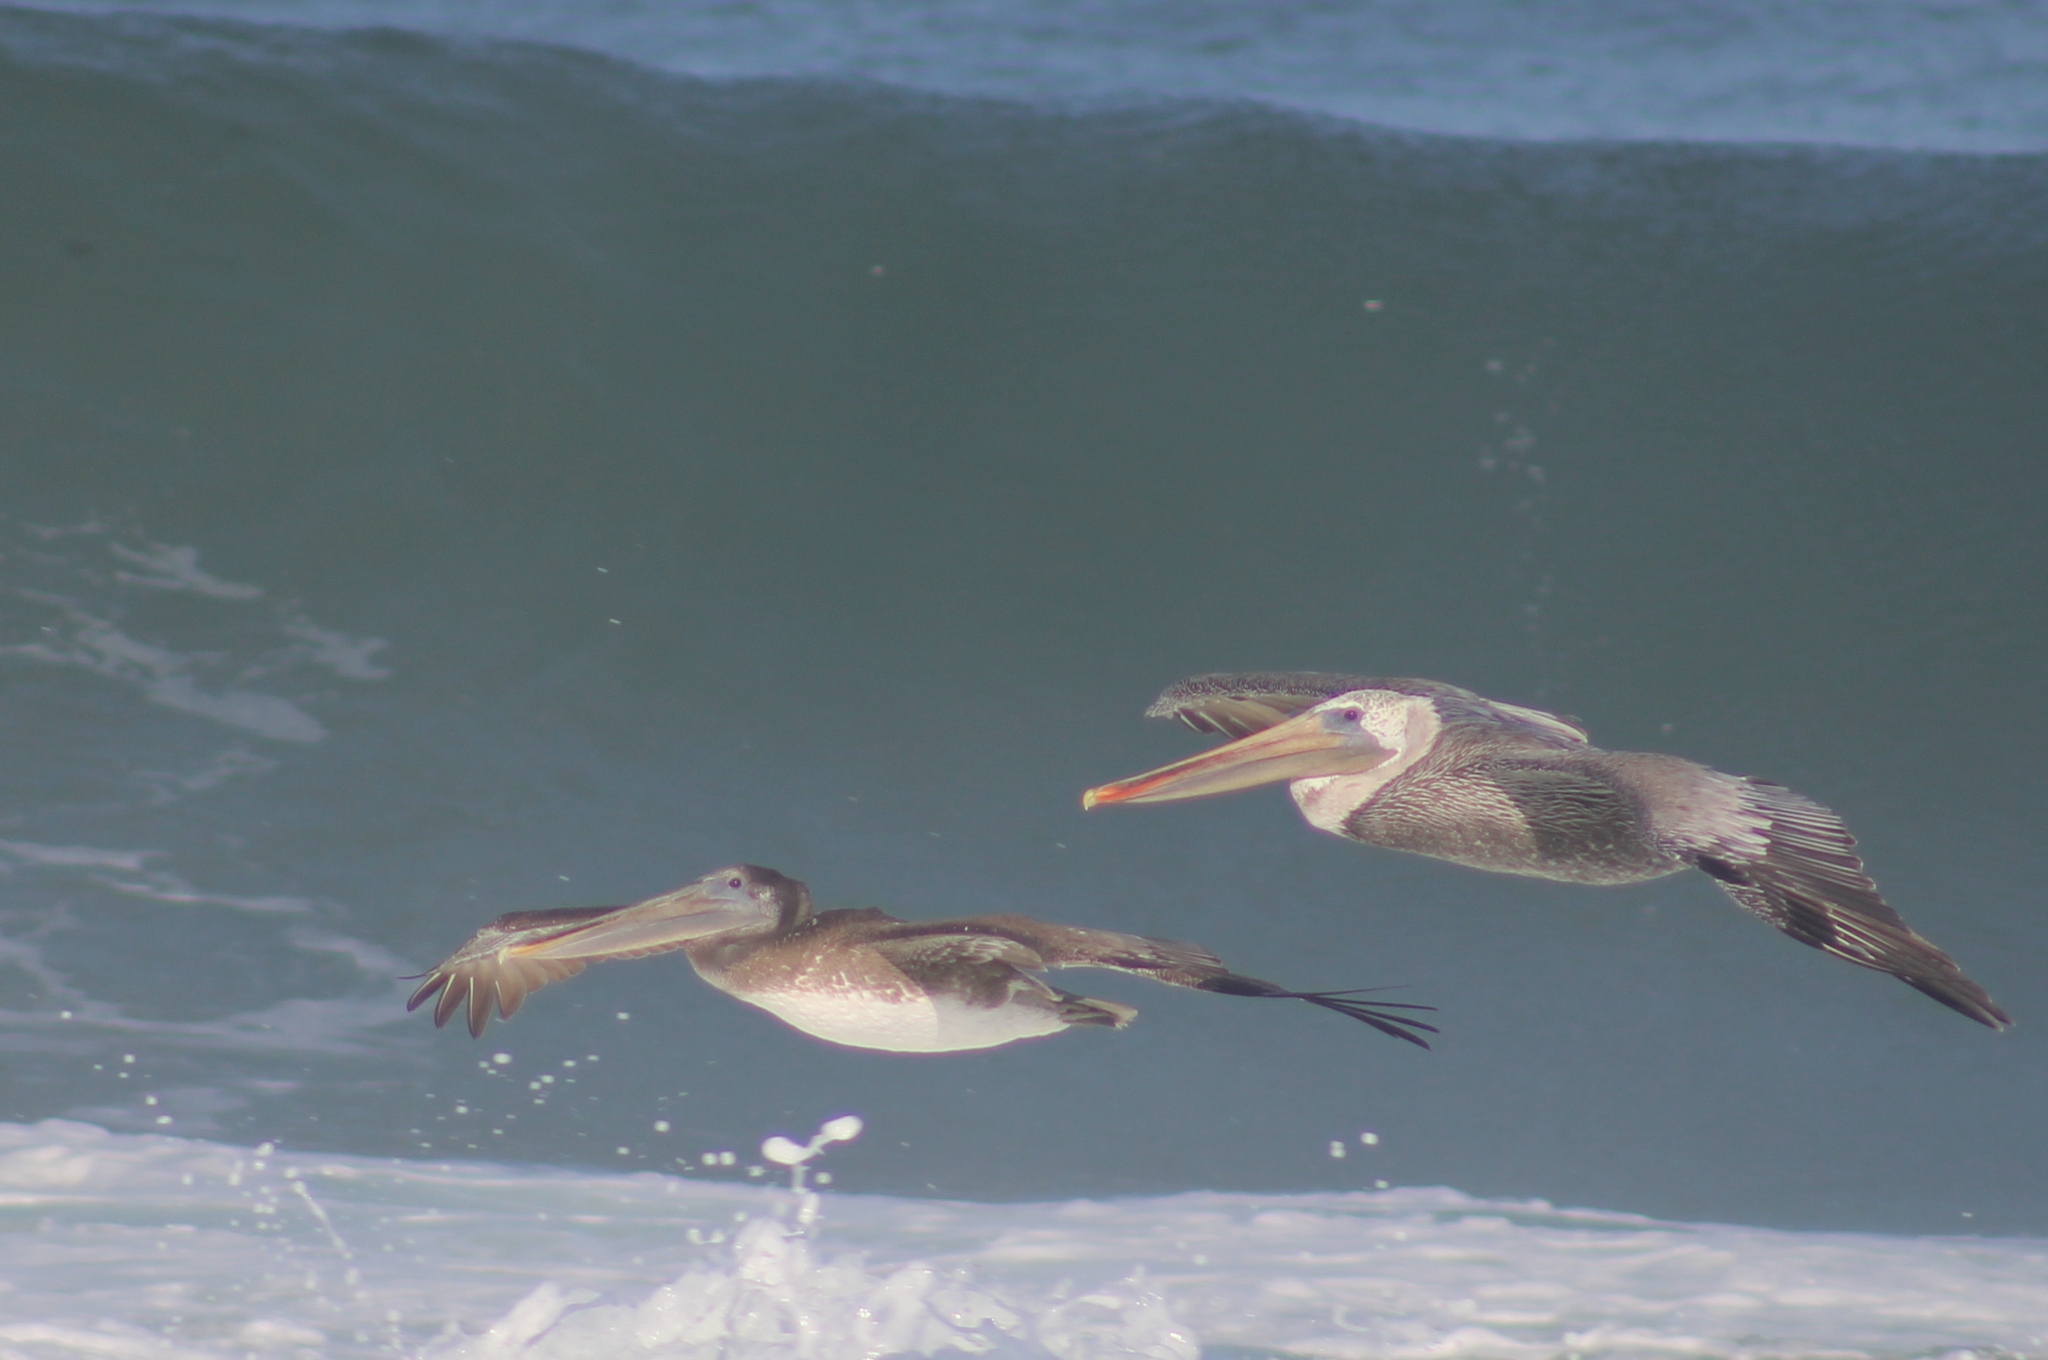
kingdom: Animalia
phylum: Chordata
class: Aves
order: Pelecaniformes
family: Pelecanidae
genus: Pelecanus
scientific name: Pelecanus occidentalis
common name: Brown pelican
